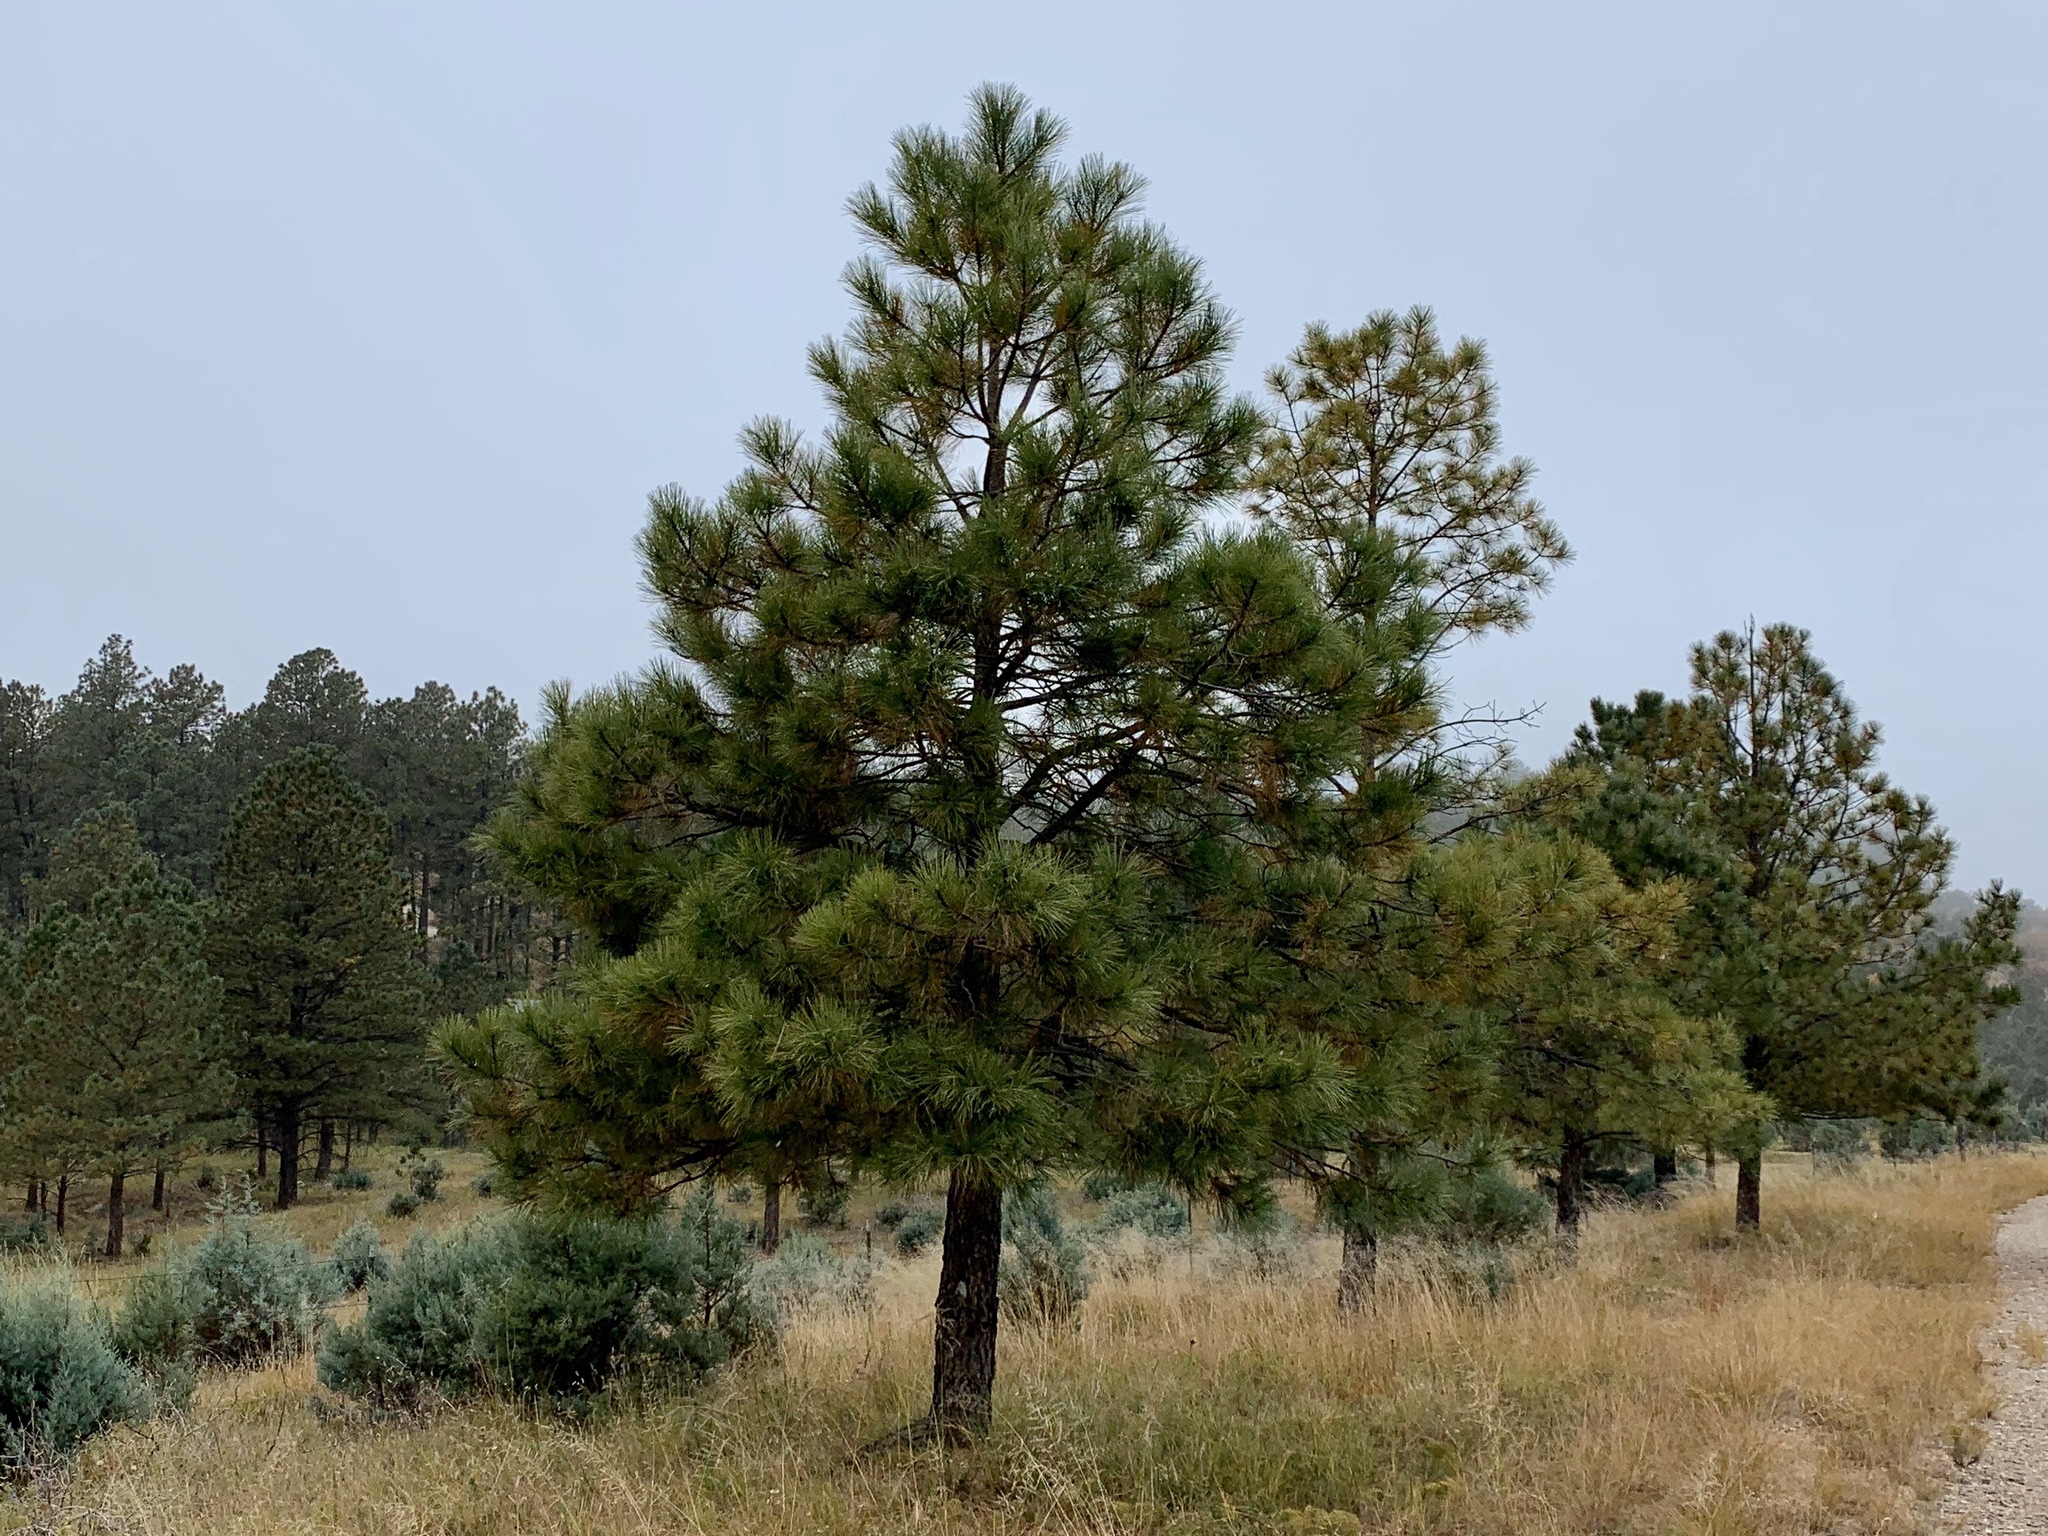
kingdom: Plantae
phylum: Tracheophyta
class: Pinopsida
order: Pinales
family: Pinaceae
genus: Pinus
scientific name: Pinus ponderosa
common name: Western yellow-pine
